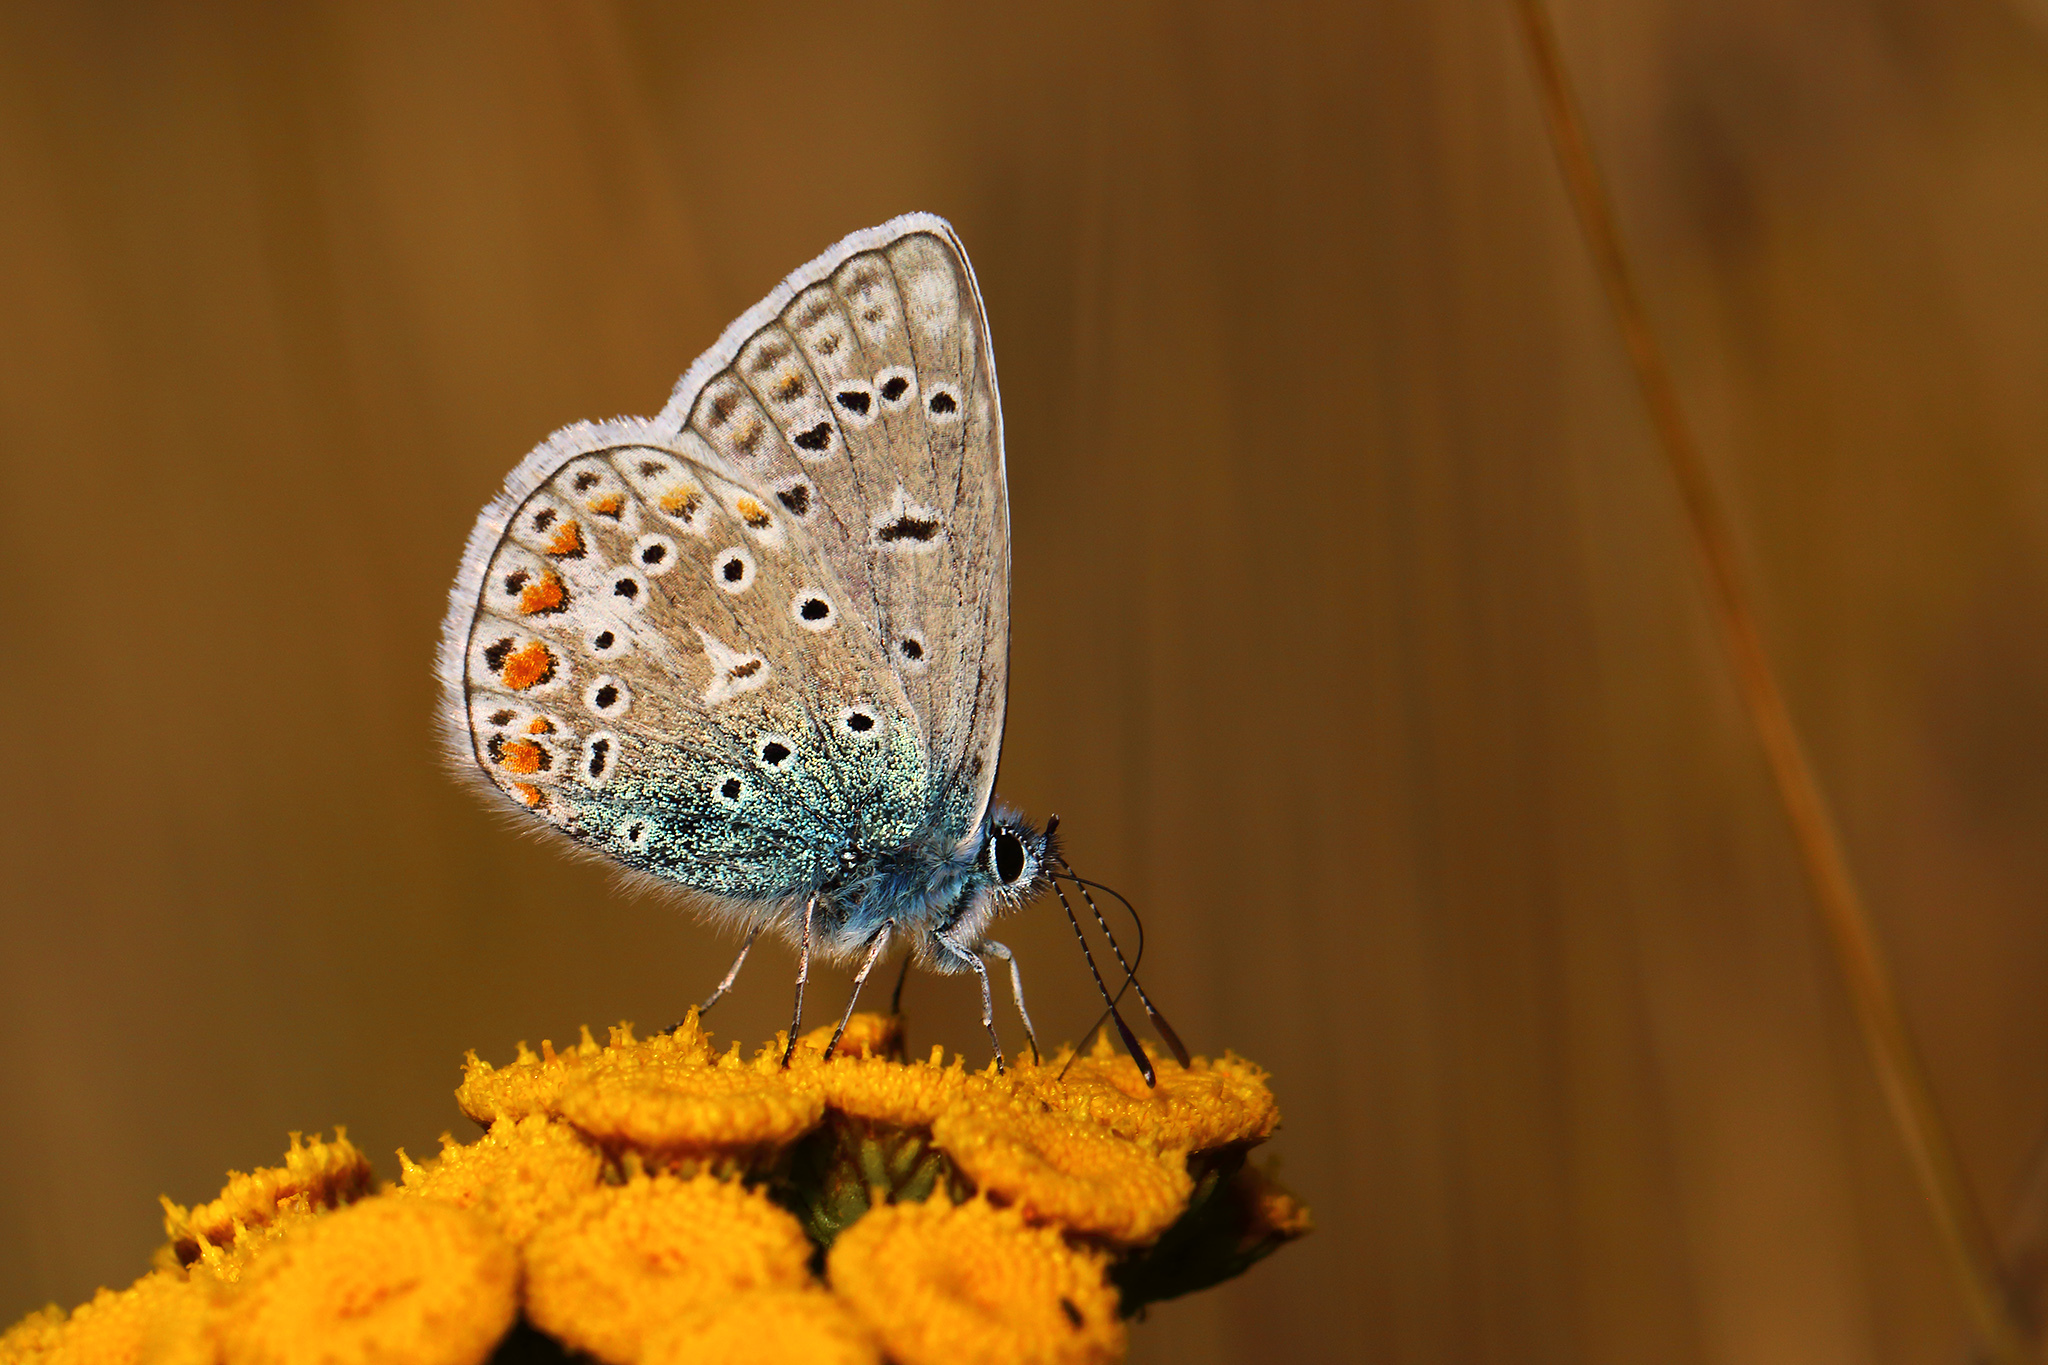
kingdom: Animalia
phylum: Arthropoda
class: Insecta
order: Lepidoptera
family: Lycaenidae
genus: Polyommatus
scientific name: Polyommatus icarus
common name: Common blue
